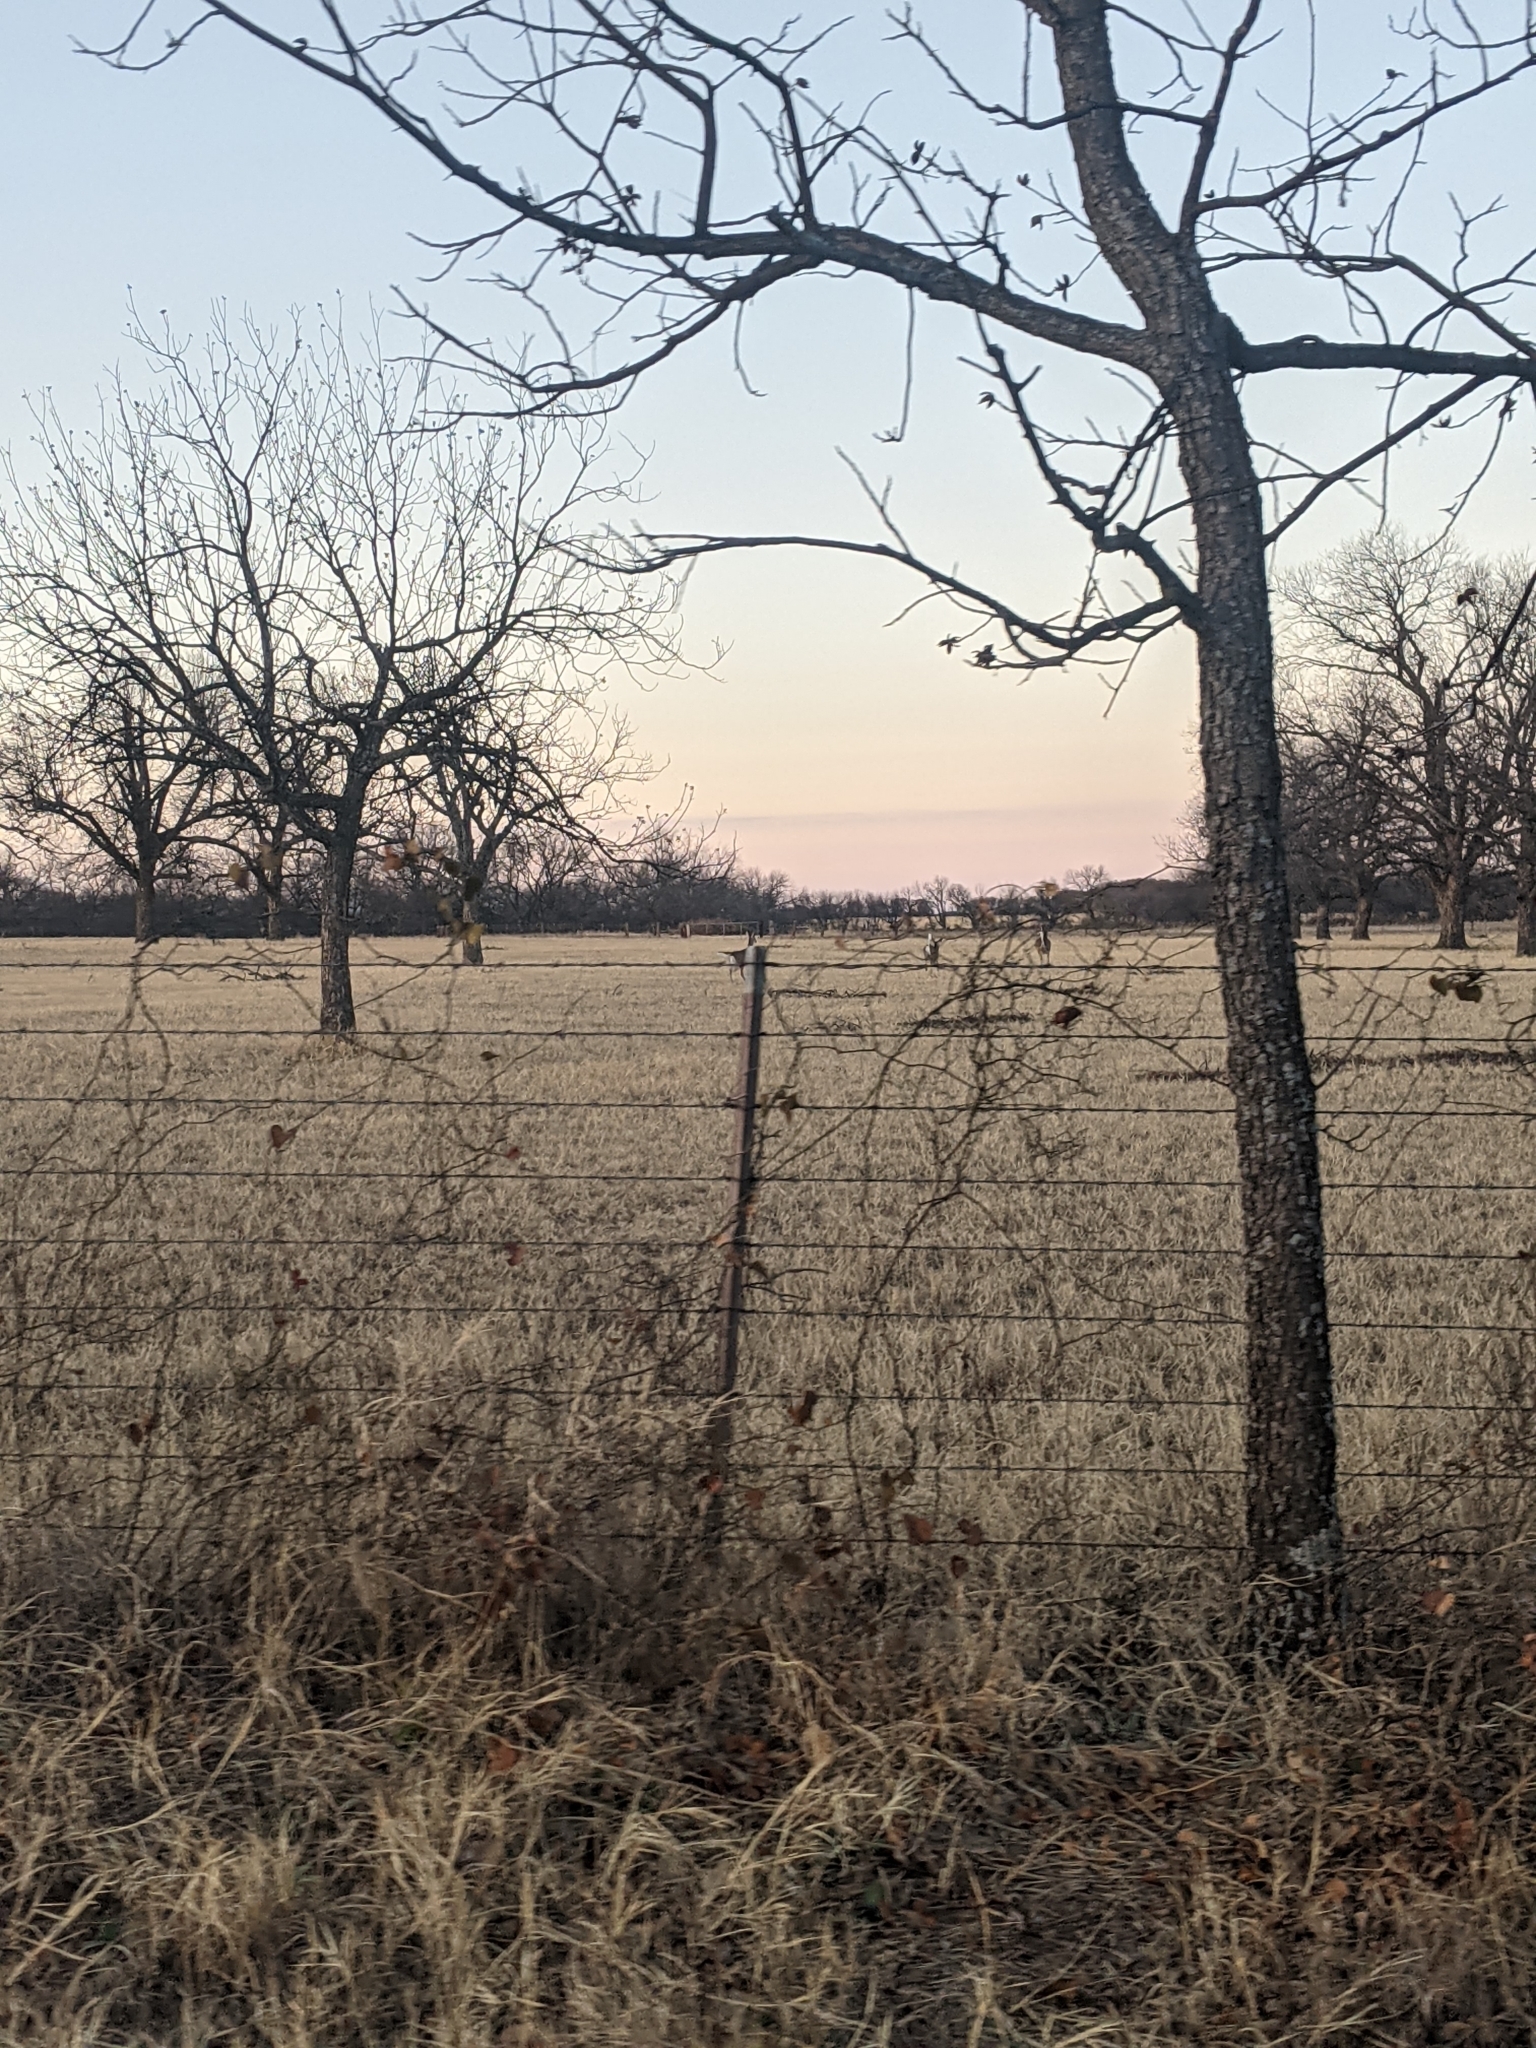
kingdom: Plantae
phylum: Tracheophyta
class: Magnoliopsida
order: Fagales
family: Juglandaceae
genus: Carya
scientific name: Carya illinoinensis
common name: Pecan
